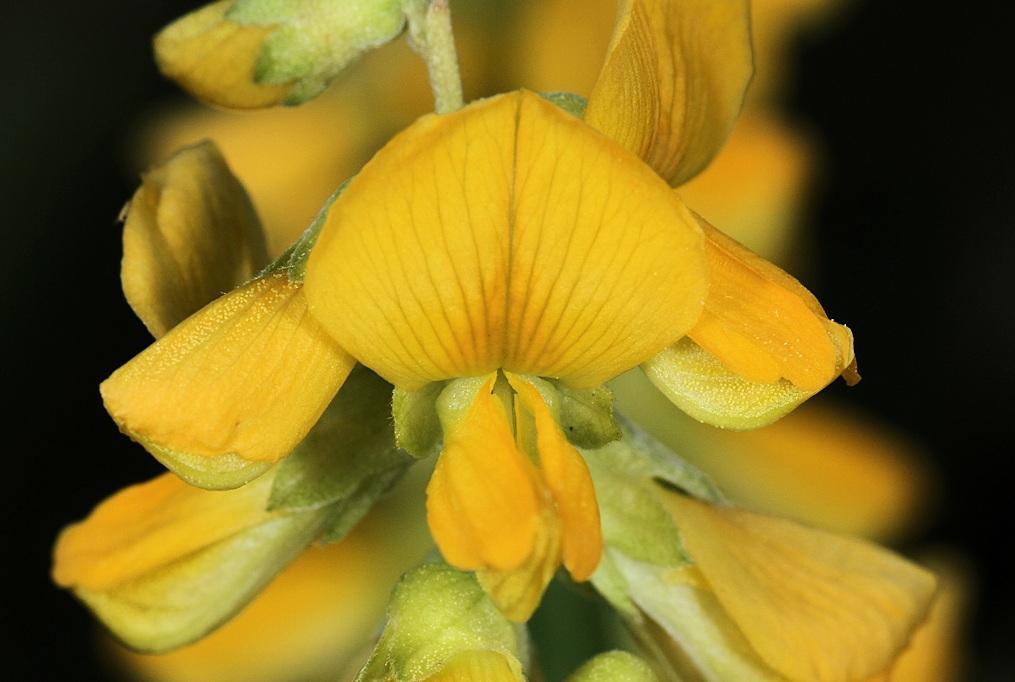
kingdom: Plantae
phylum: Tracheophyta
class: Magnoliopsida
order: Fabales
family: Fabaceae
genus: Eriosema
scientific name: Eriosema psoraleoides
